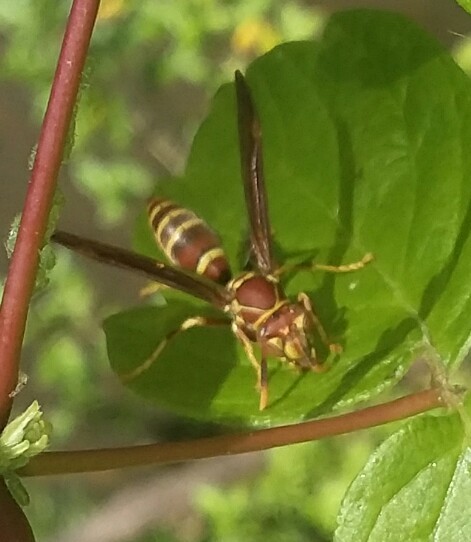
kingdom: Animalia
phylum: Arthropoda
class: Insecta
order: Hymenoptera
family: Eumenidae
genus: Polistes
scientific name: Polistes exclamans
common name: Paper wasp
